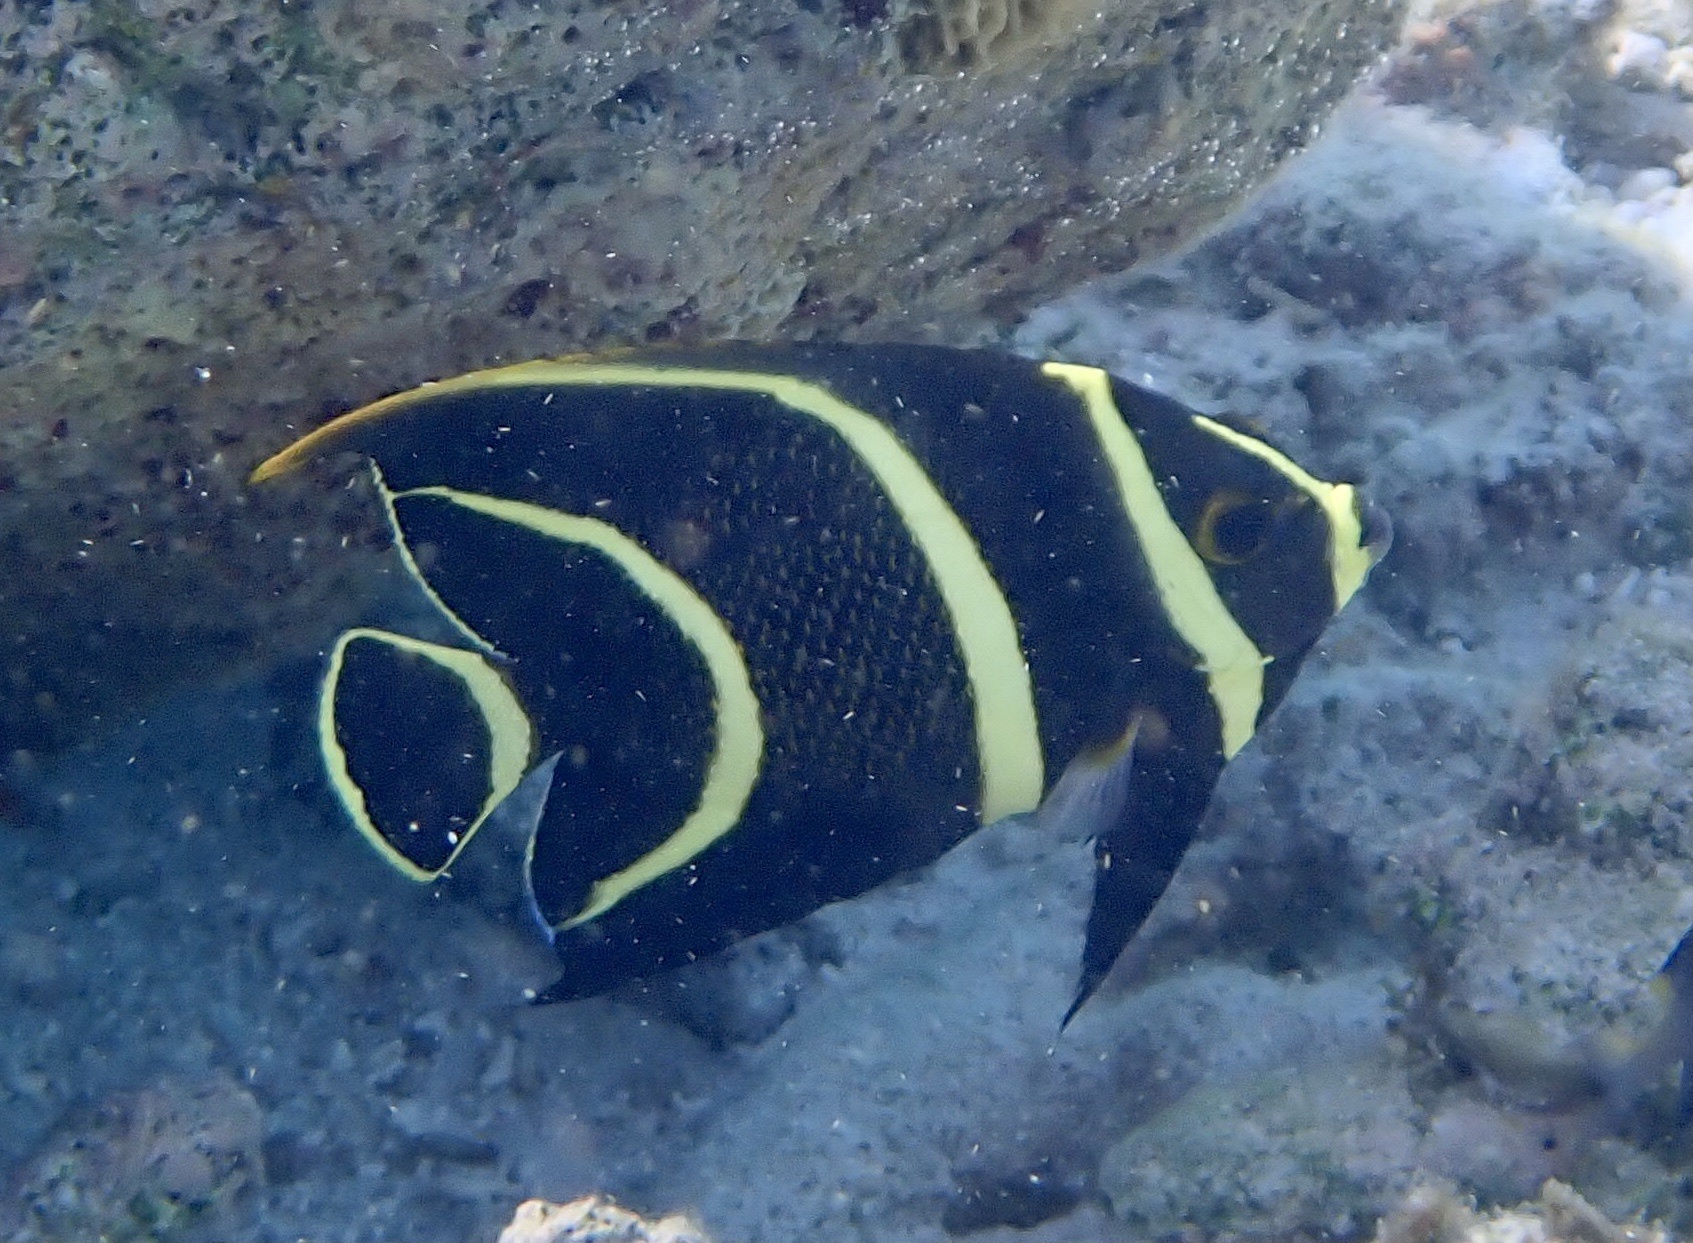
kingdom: Animalia
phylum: Chordata
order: Perciformes
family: Pomacanthidae
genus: Pomacanthus
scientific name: Pomacanthus paru
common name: French angelfish
